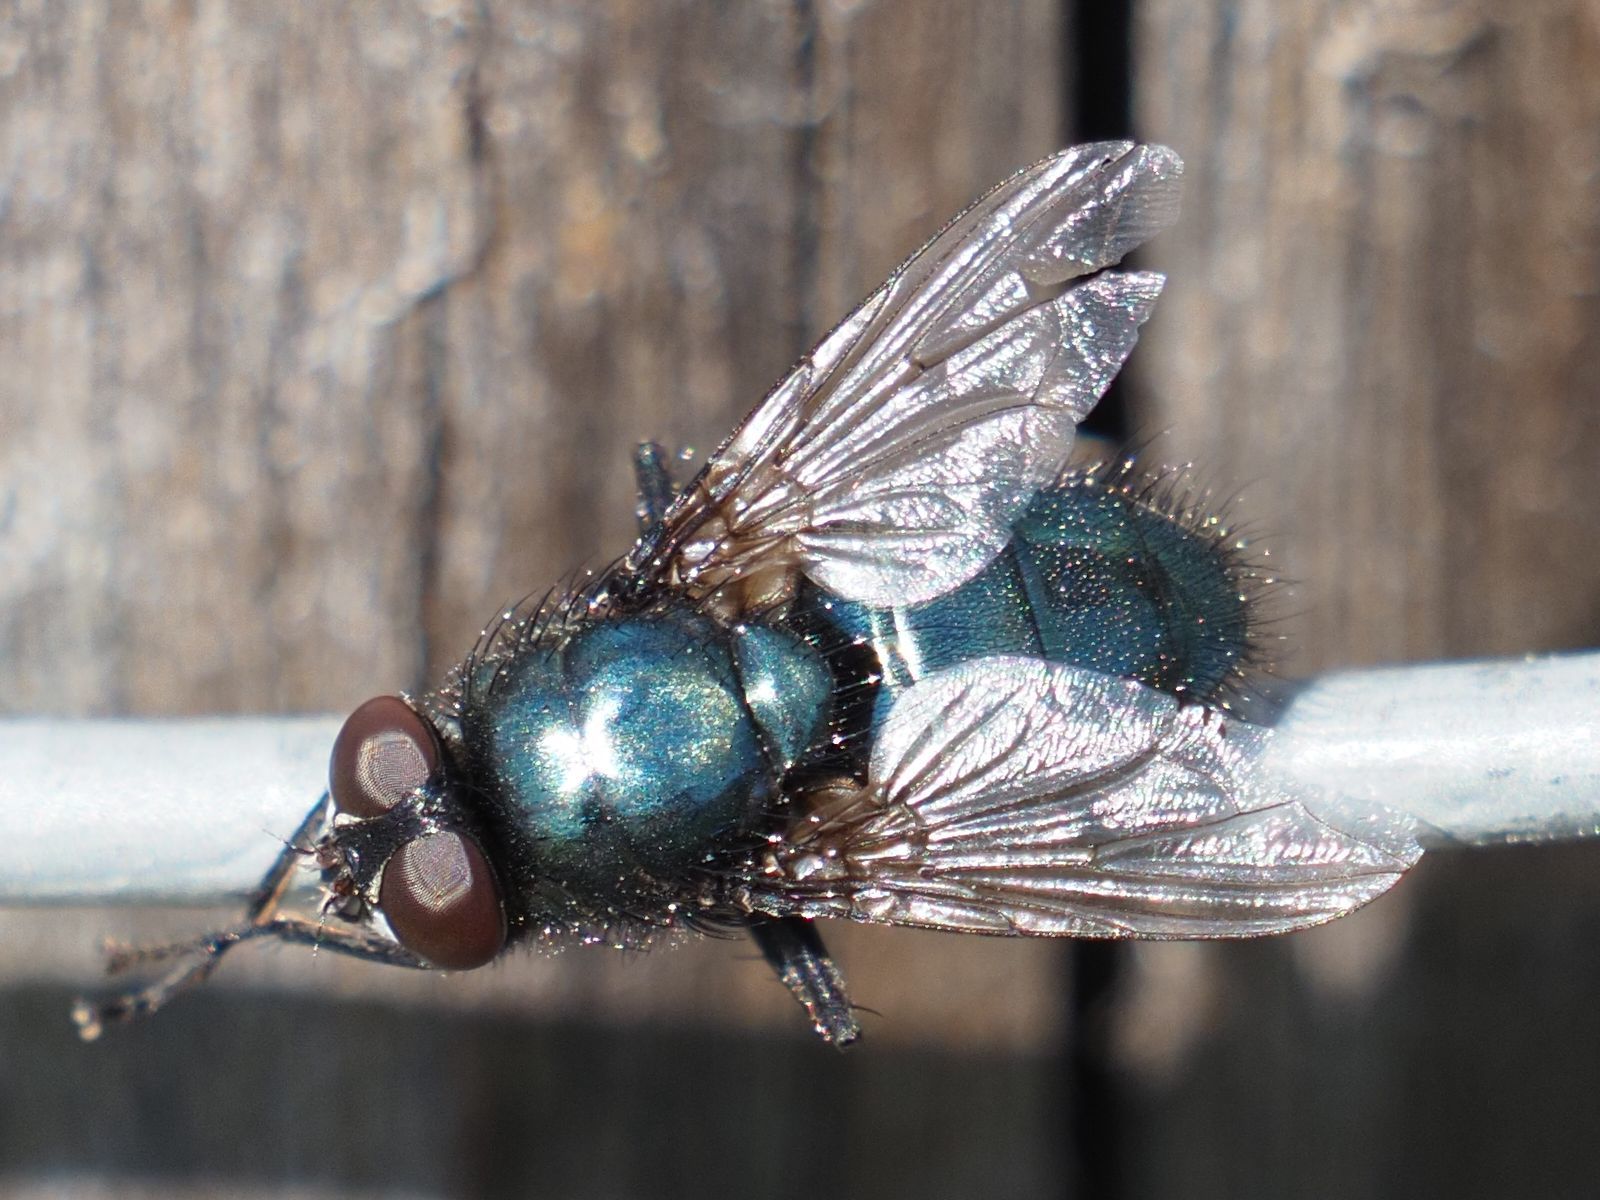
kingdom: Animalia
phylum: Arthropoda
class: Insecta
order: Diptera
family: Calliphoridae
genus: Protophormia
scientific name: Protophormia terraenovae
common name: Blackbottle
